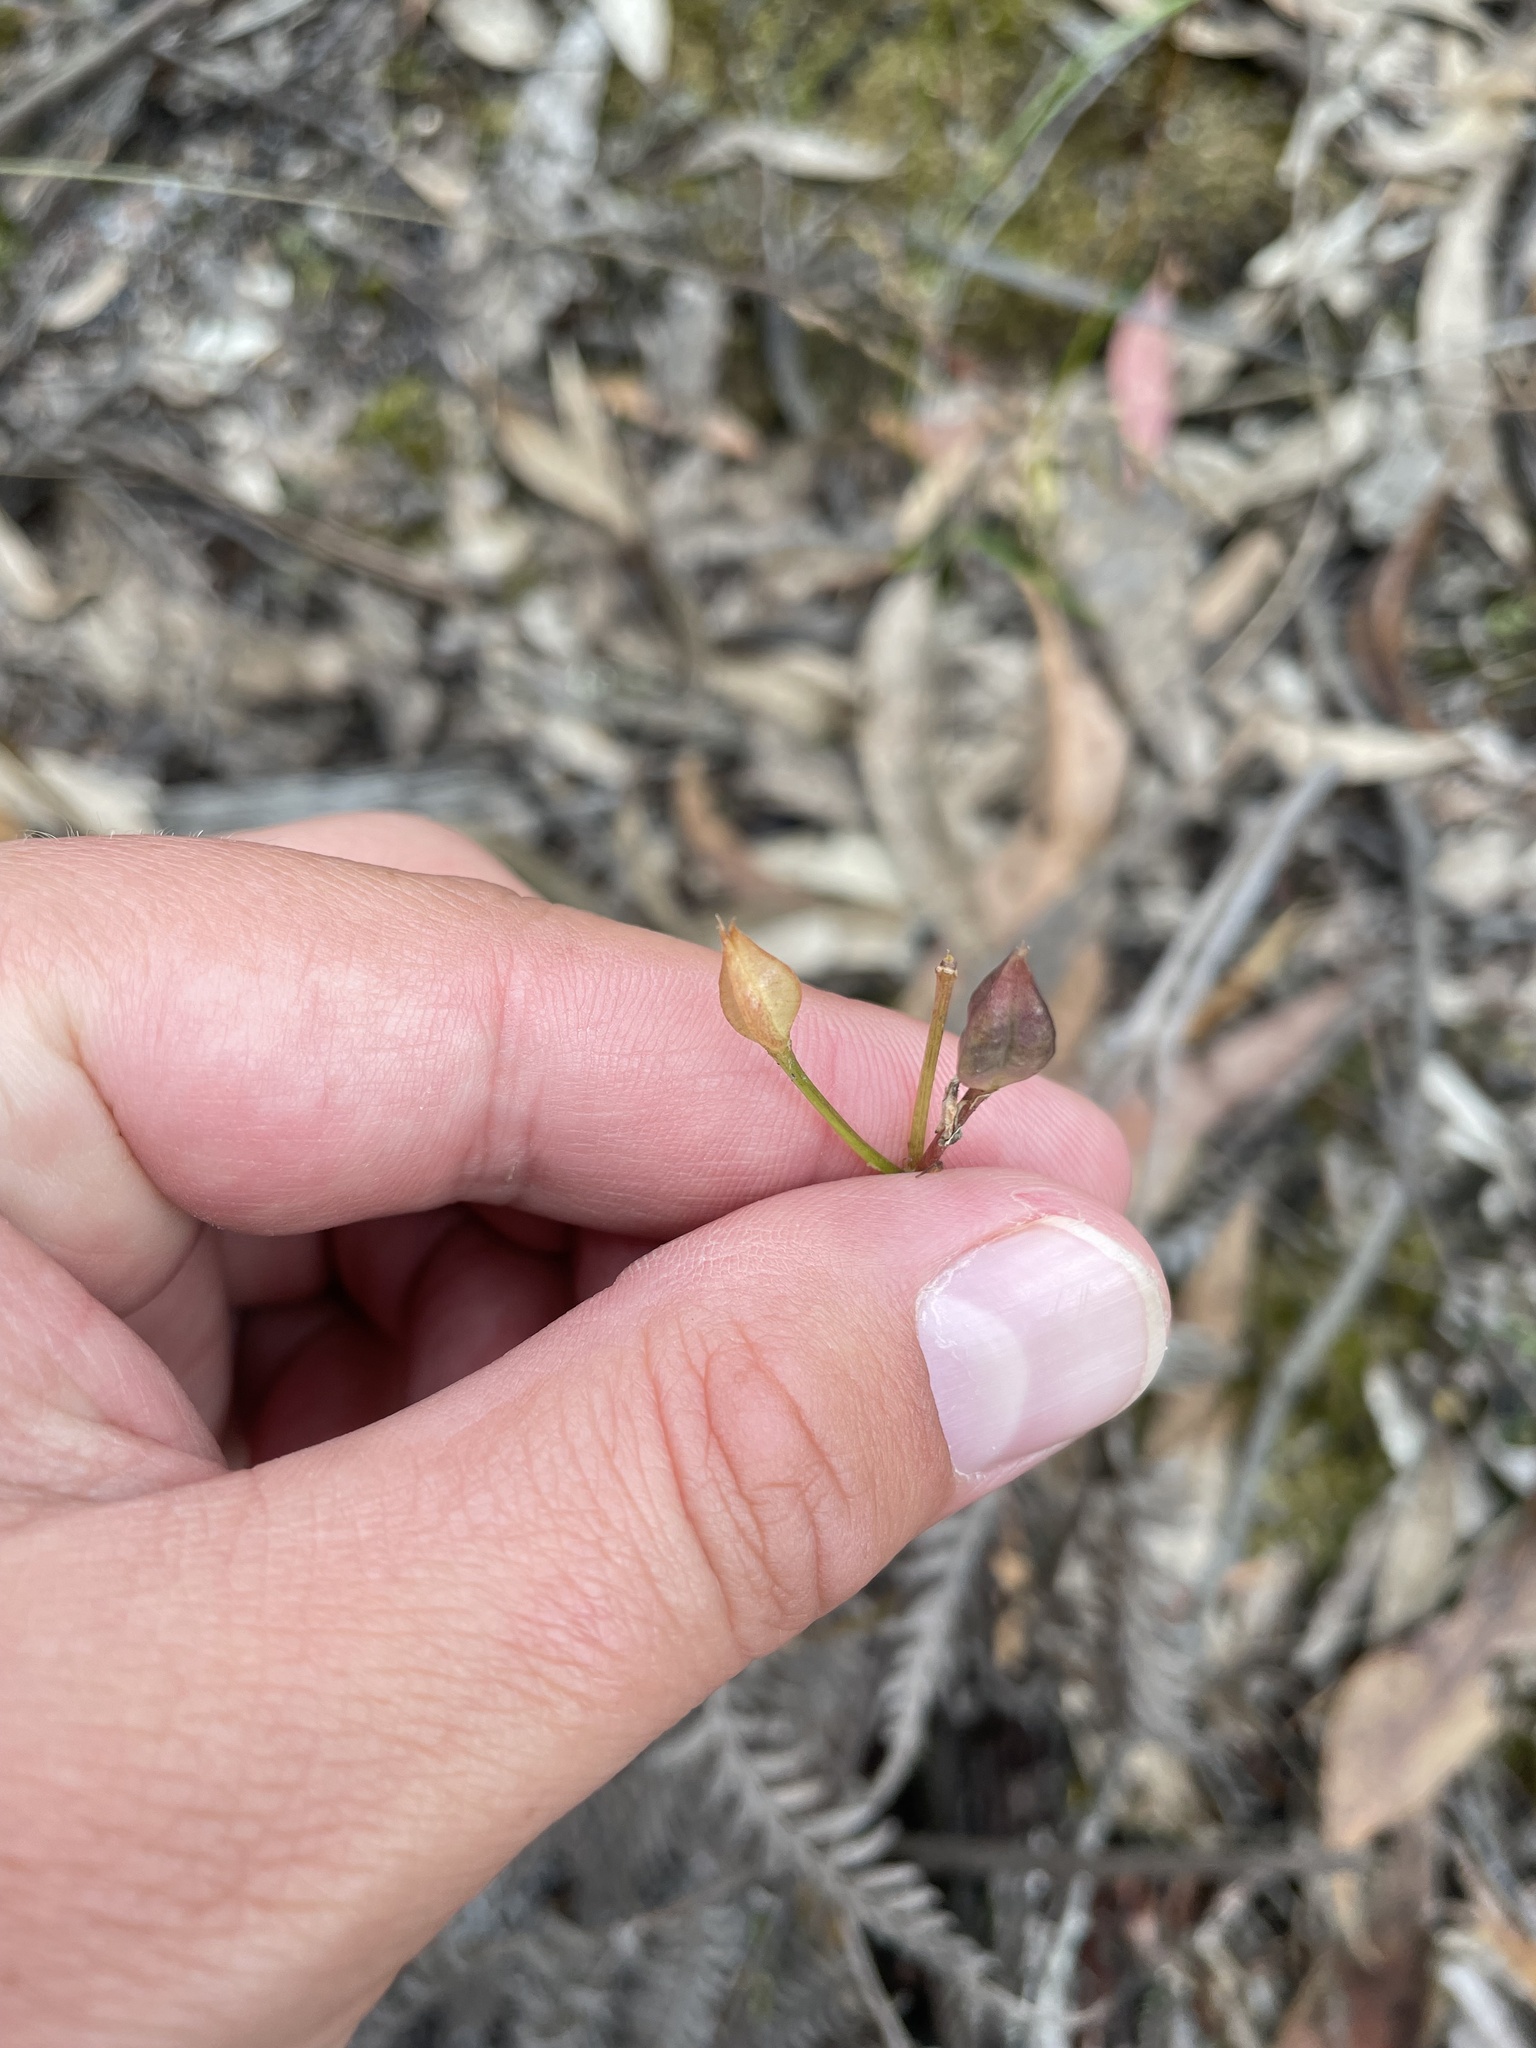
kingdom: Plantae
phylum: Tracheophyta
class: Liliopsida
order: Liliales
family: Colchicaceae
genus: Burchardia
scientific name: Burchardia umbellata
